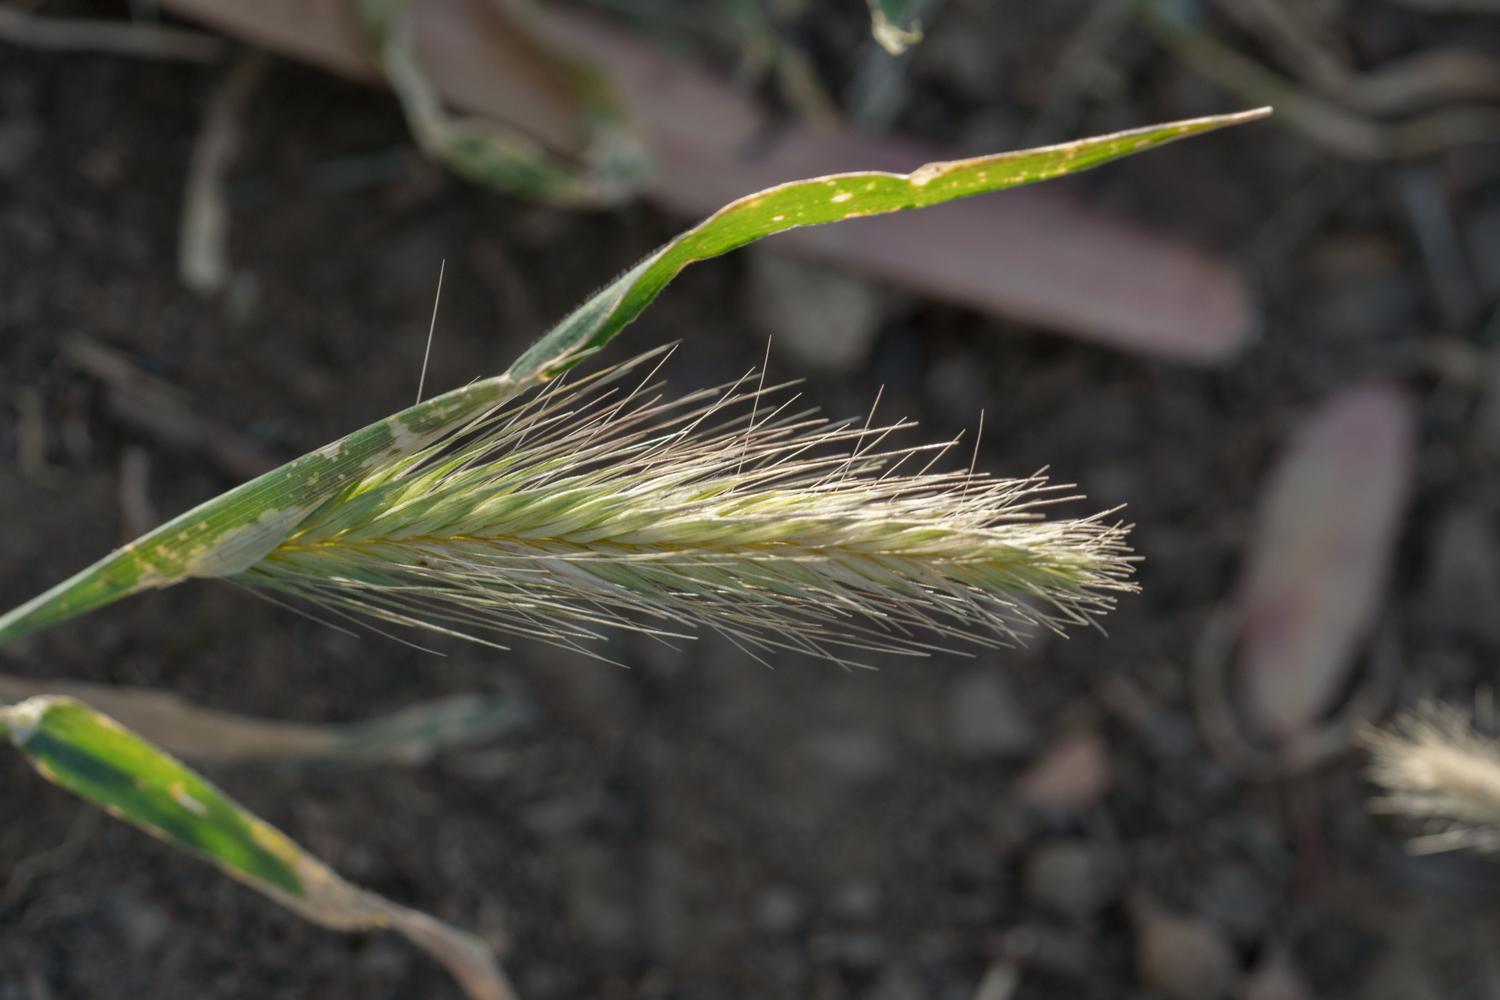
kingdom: Plantae
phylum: Tracheophyta
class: Liliopsida
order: Poales
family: Poaceae
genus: Hordeum
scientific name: Hordeum murinum
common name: Wall barley
